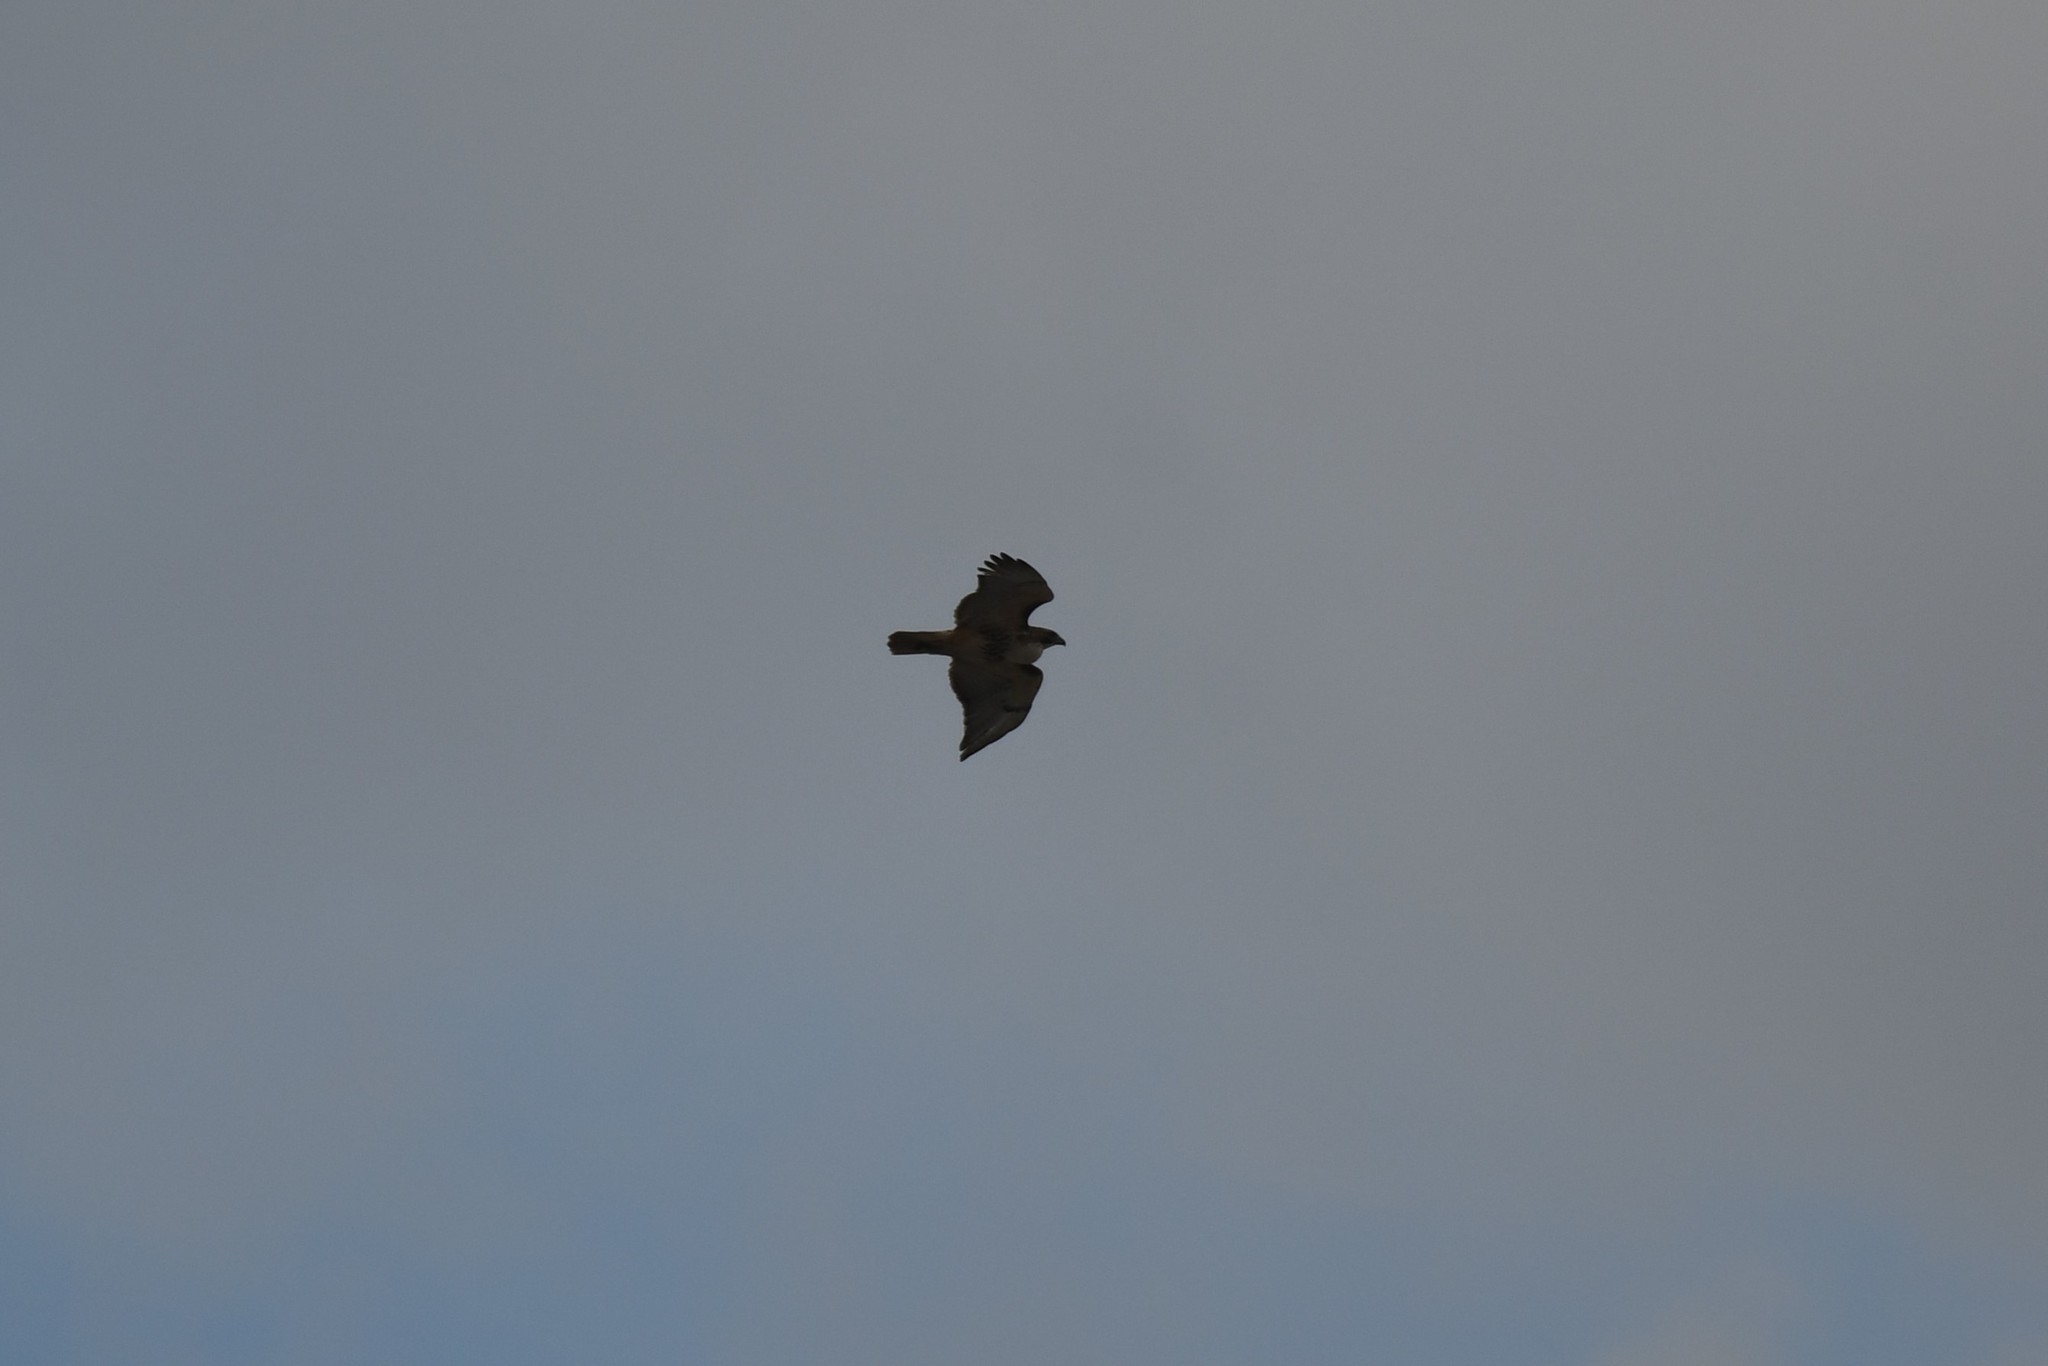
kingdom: Animalia
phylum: Chordata
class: Aves
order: Accipitriformes
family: Accipitridae
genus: Buteo
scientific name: Buteo jamaicensis
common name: Red-tailed hawk
